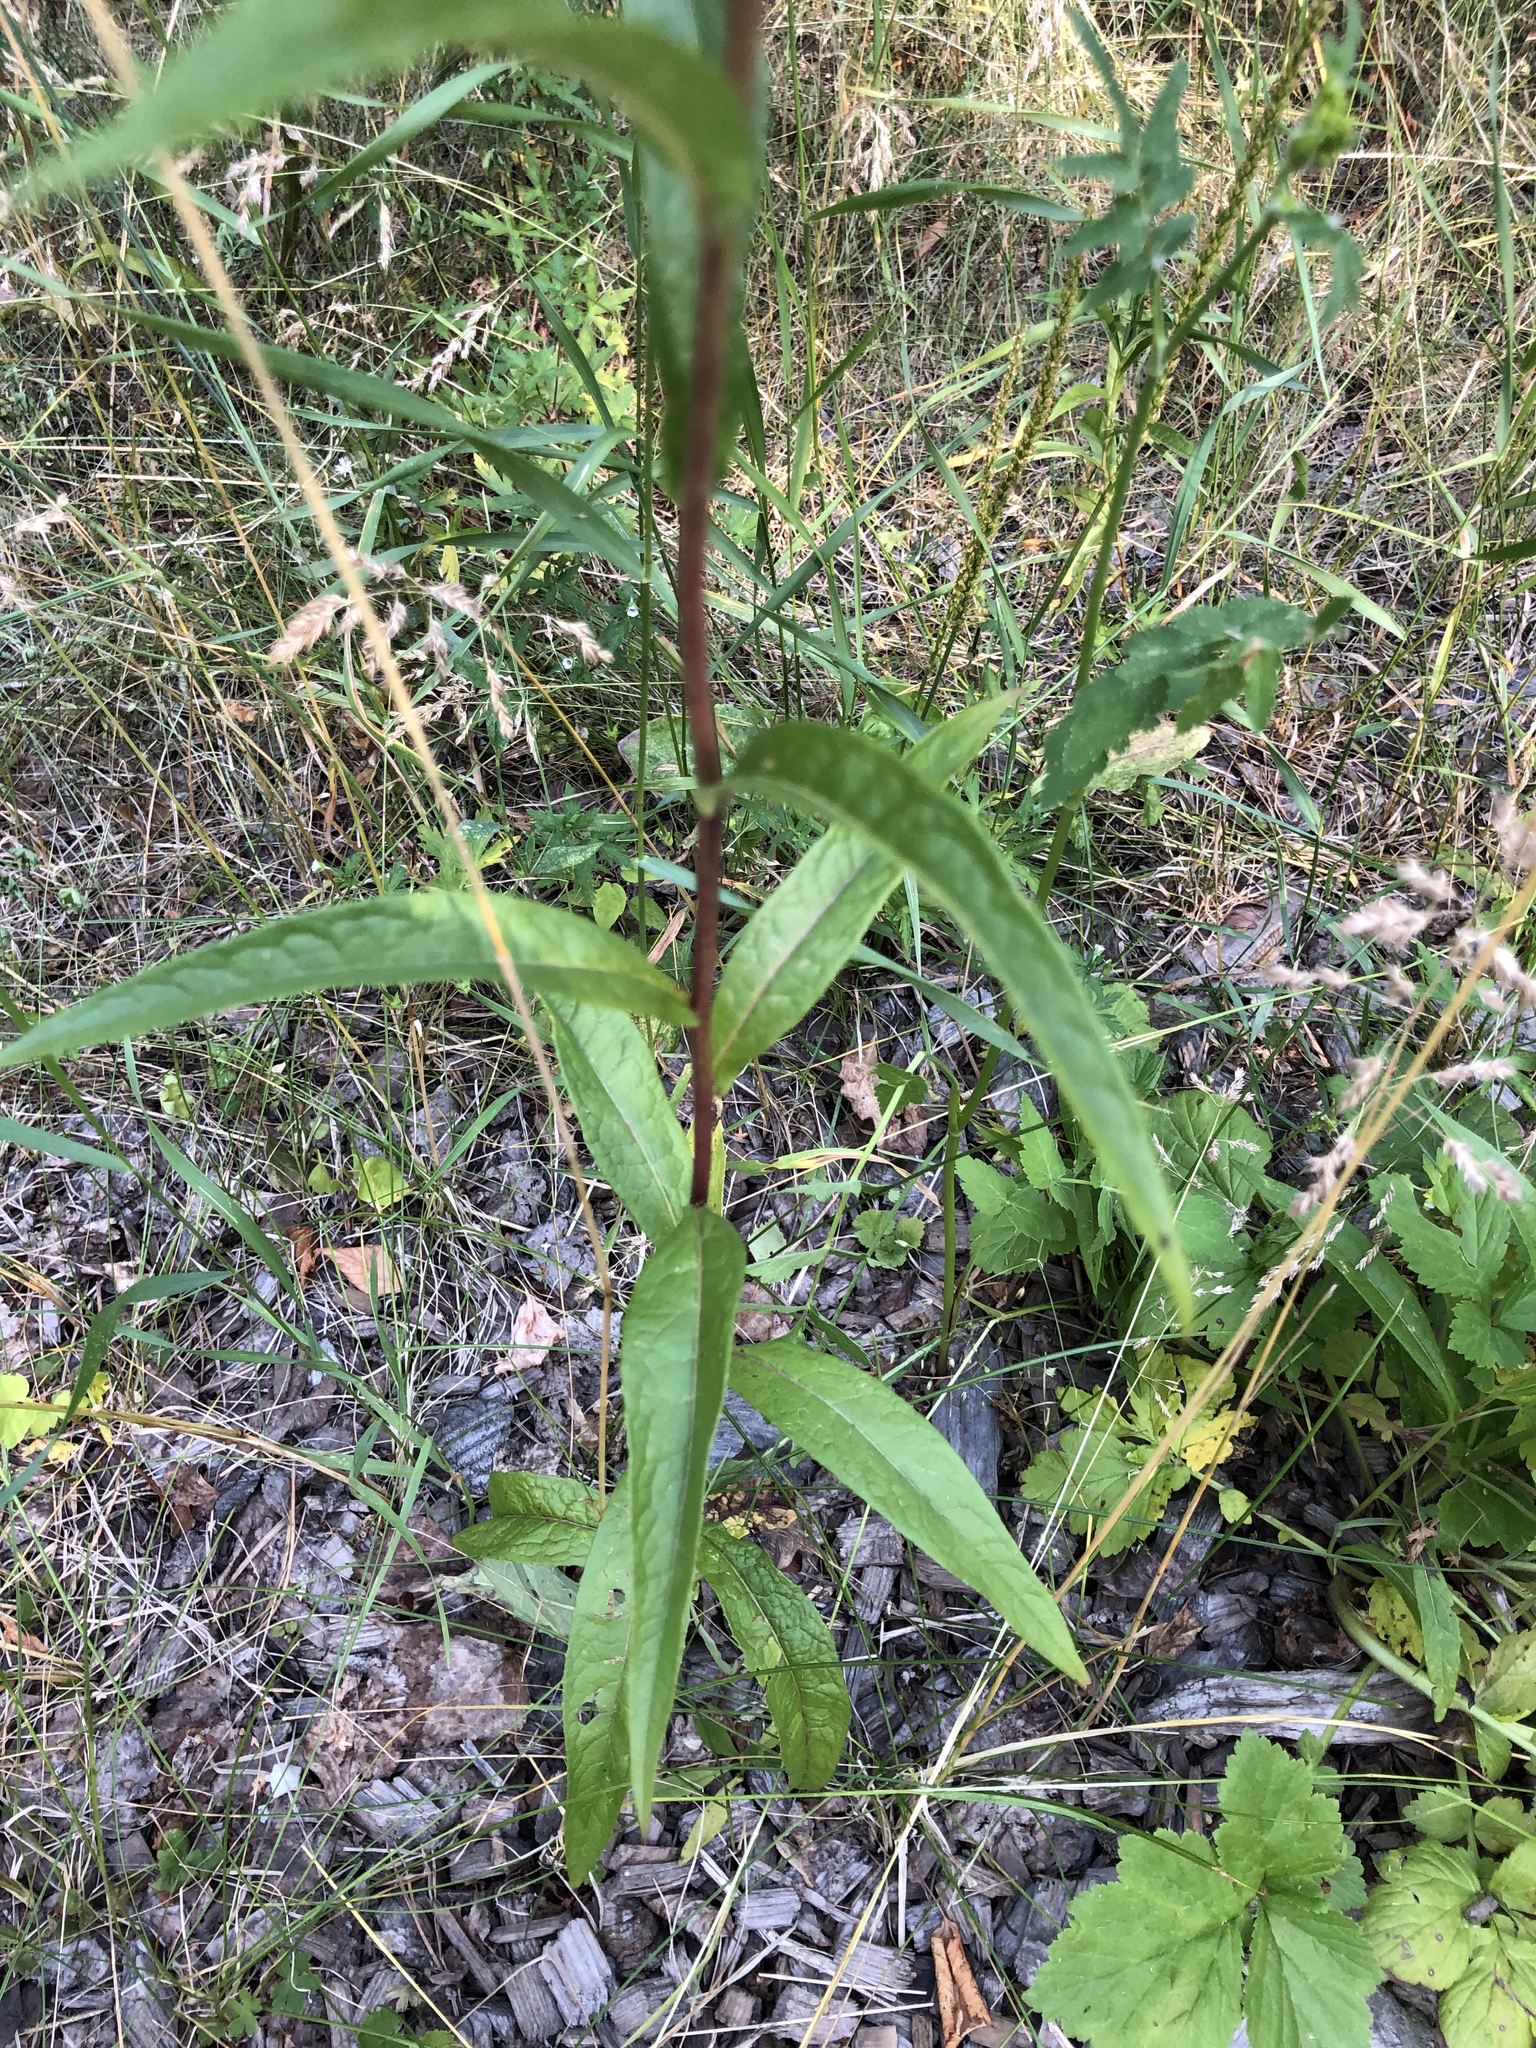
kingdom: Plantae
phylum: Tracheophyta
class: Magnoliopsida
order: Asterales
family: Asteraceae
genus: Lactuca
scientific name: Lactuca sibirica
